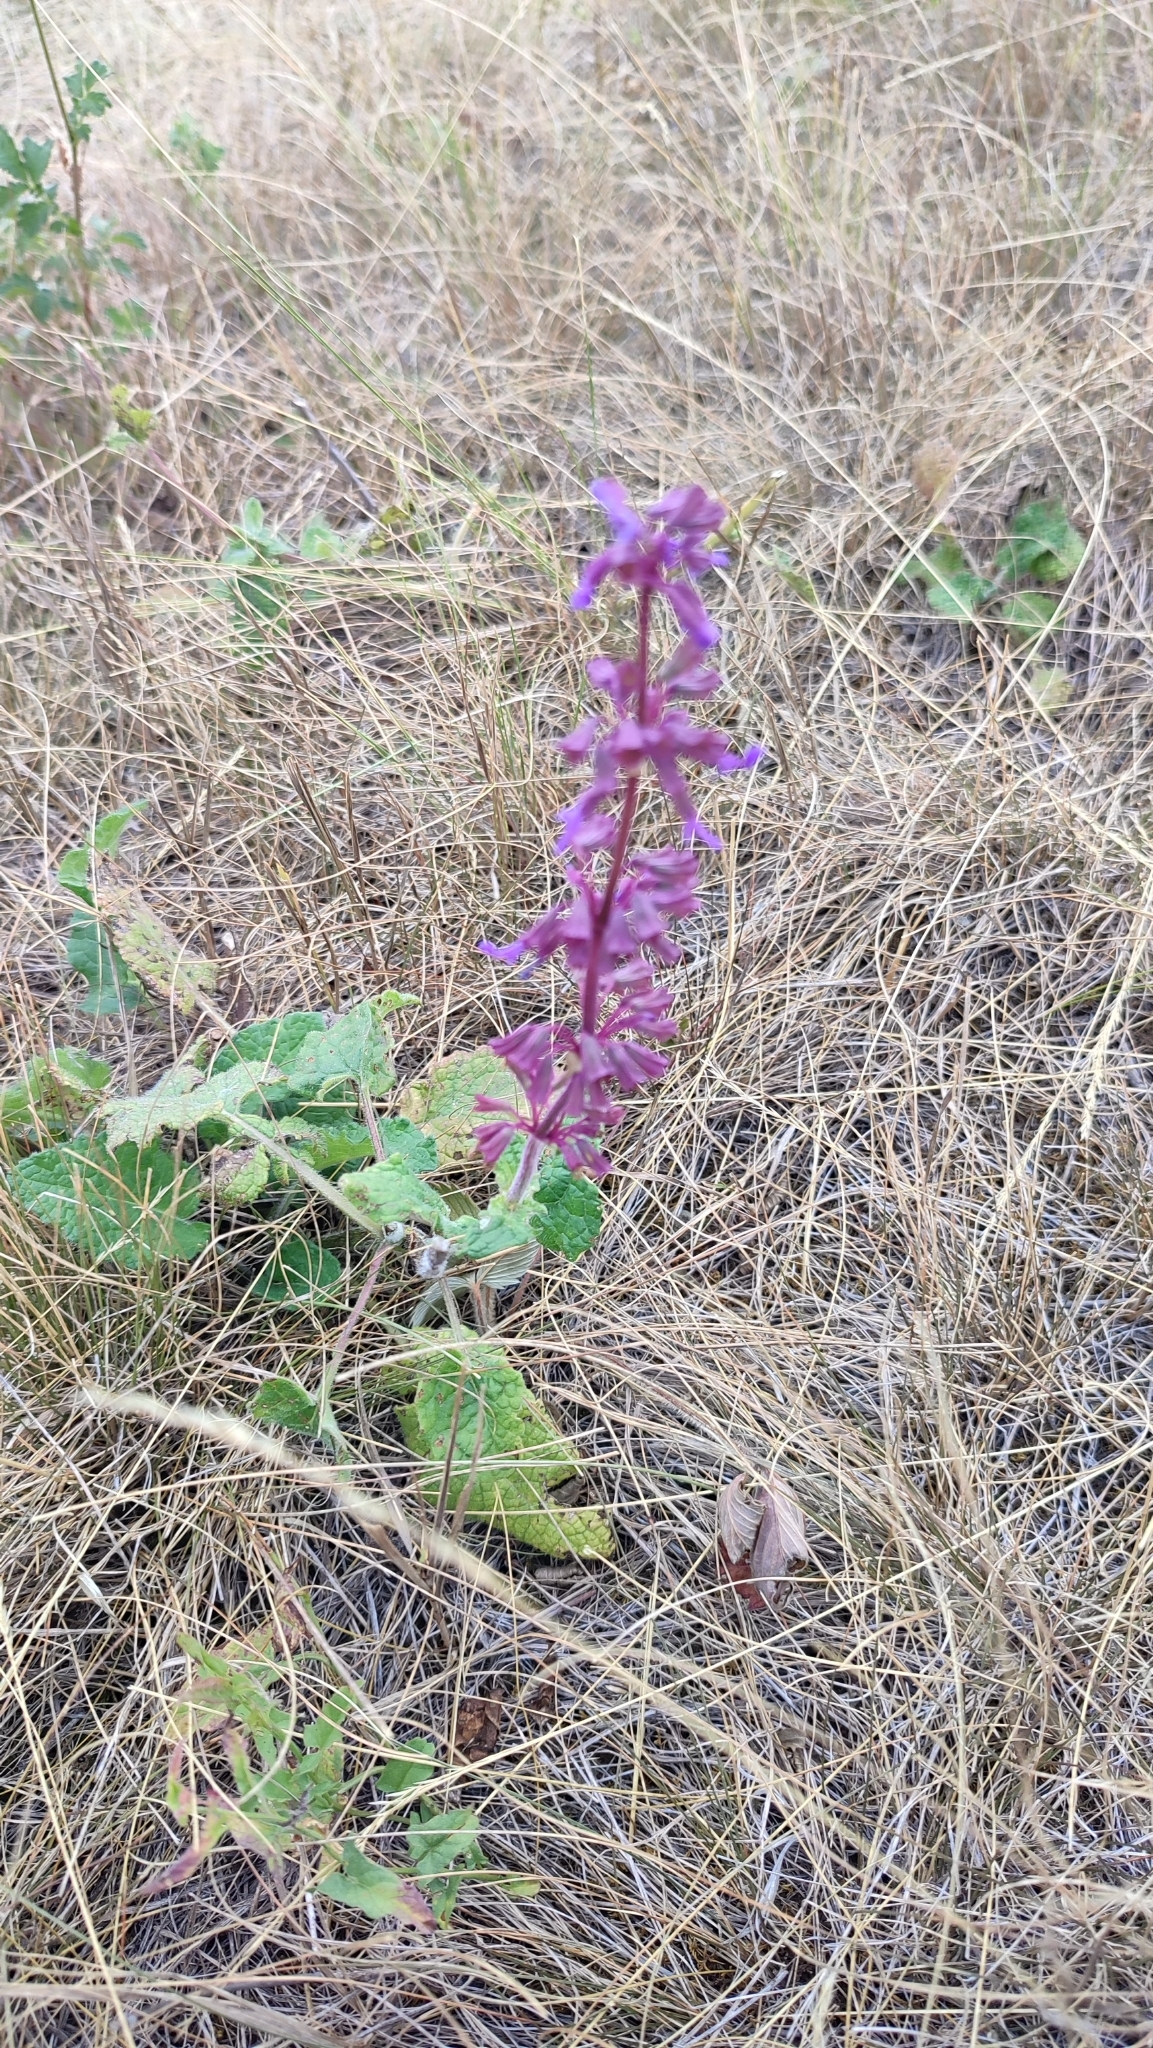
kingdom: Plantae
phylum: Tracheophyta
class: Magnoliopsida
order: Lamiales
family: Lamiaceae
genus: Salvia
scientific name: Salvia verticillata
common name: Whorled clary
